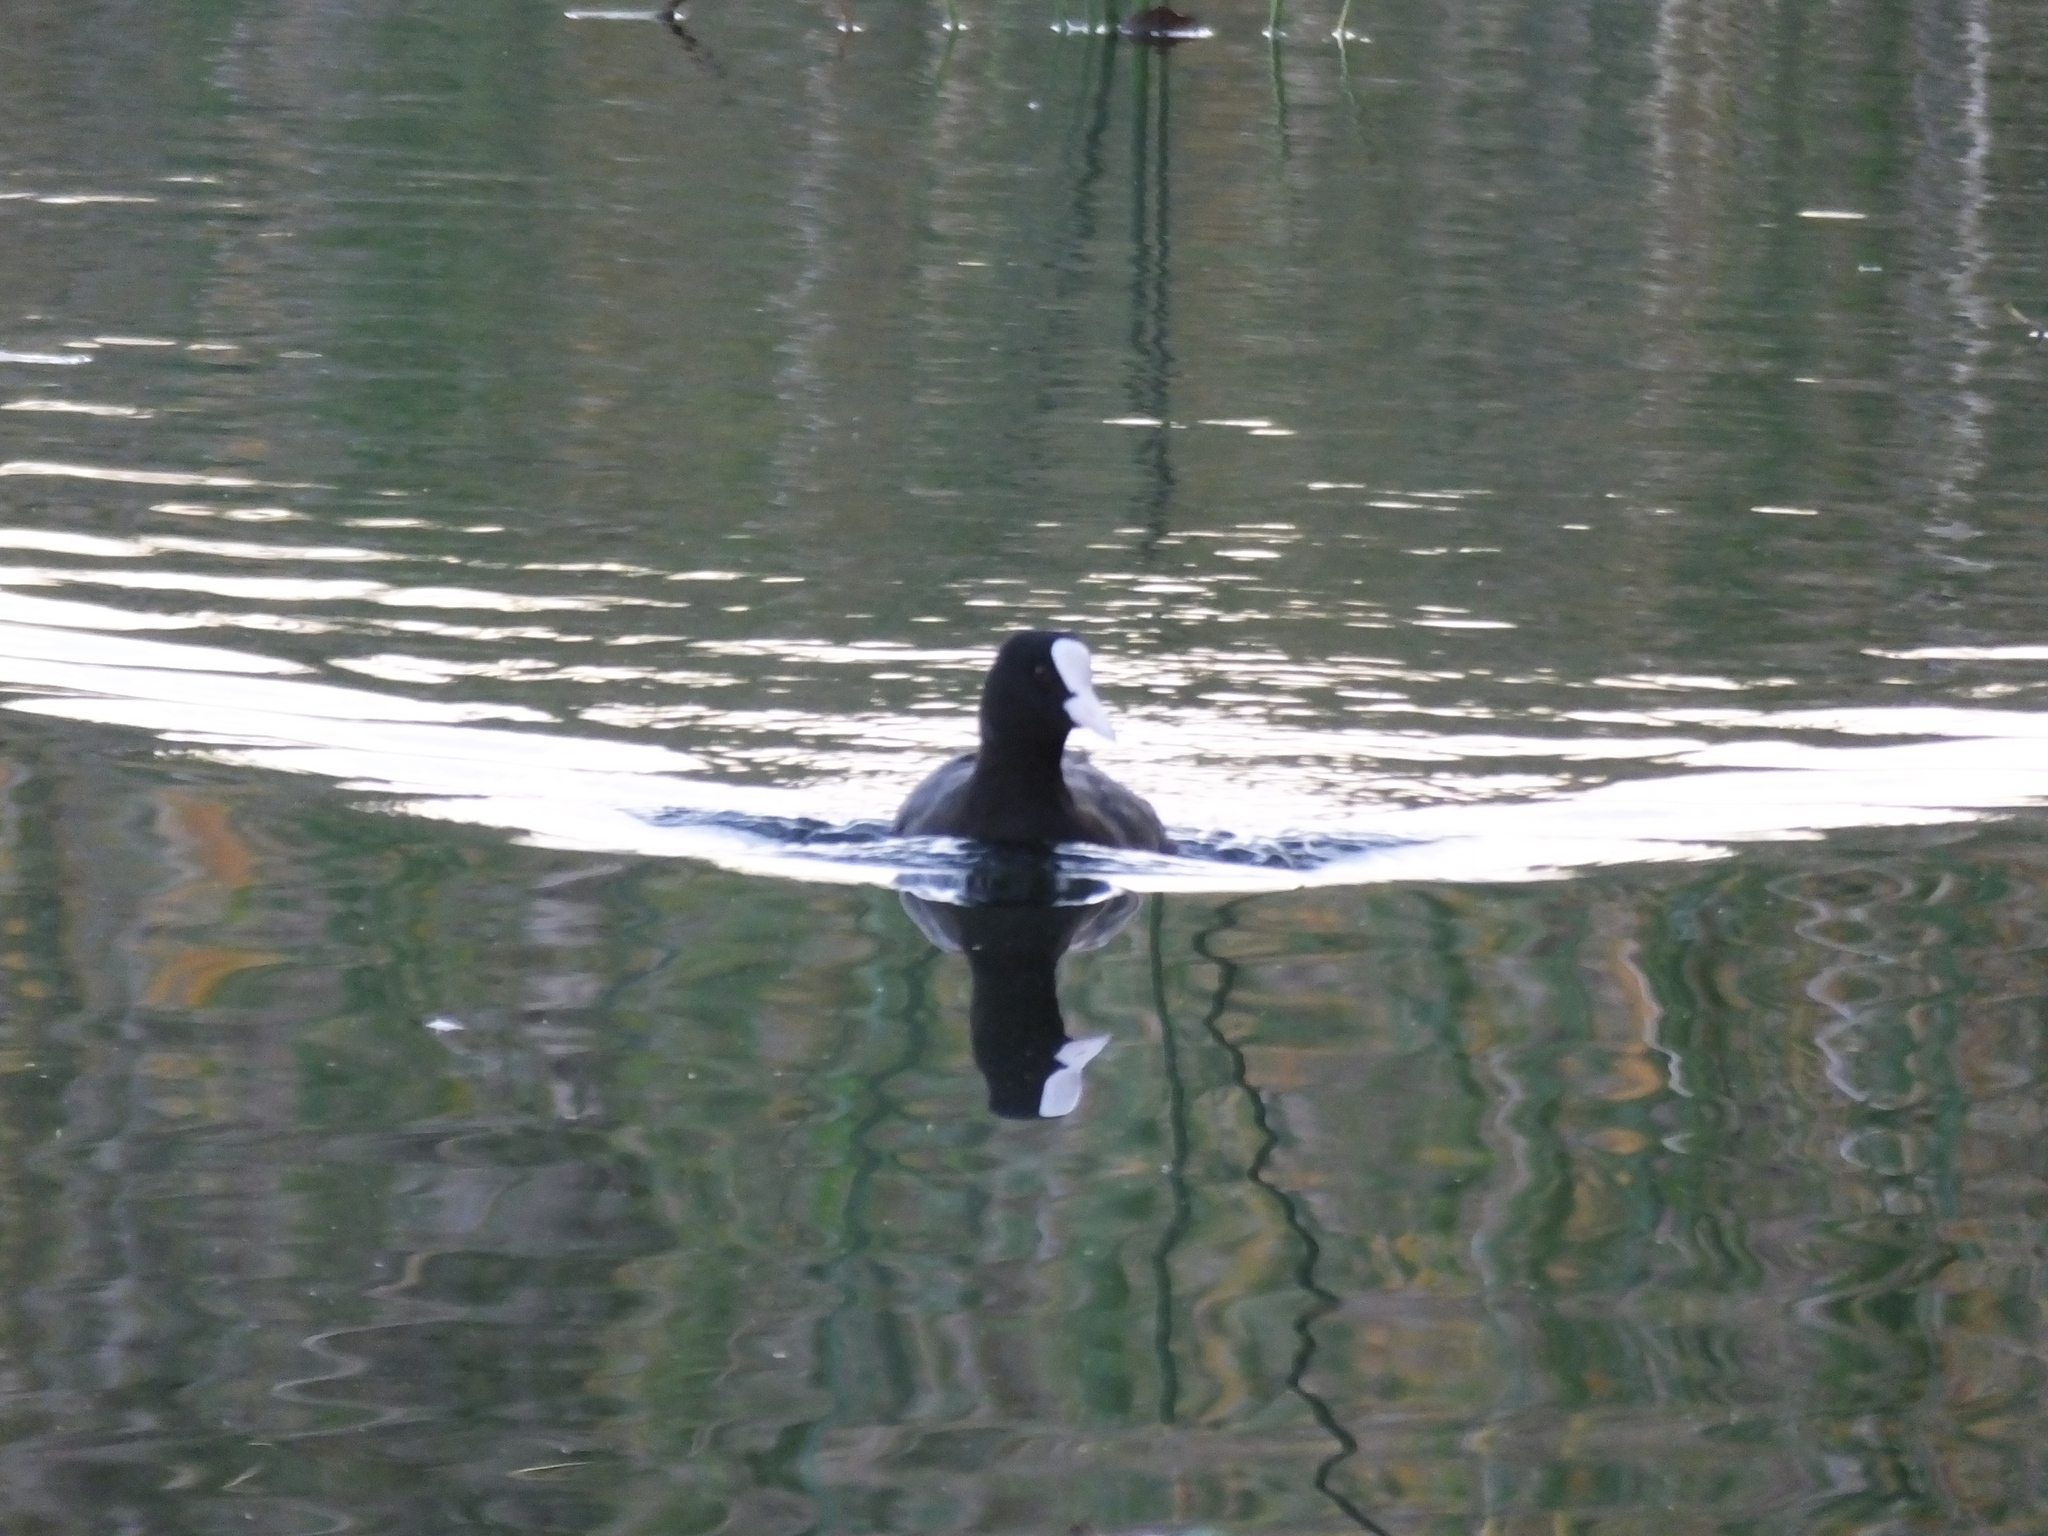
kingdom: Animalia
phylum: Chordata
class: Aves
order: Gruiformes
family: Rallidae
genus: Fulica
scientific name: Fulica atra
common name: Eurasian coot
